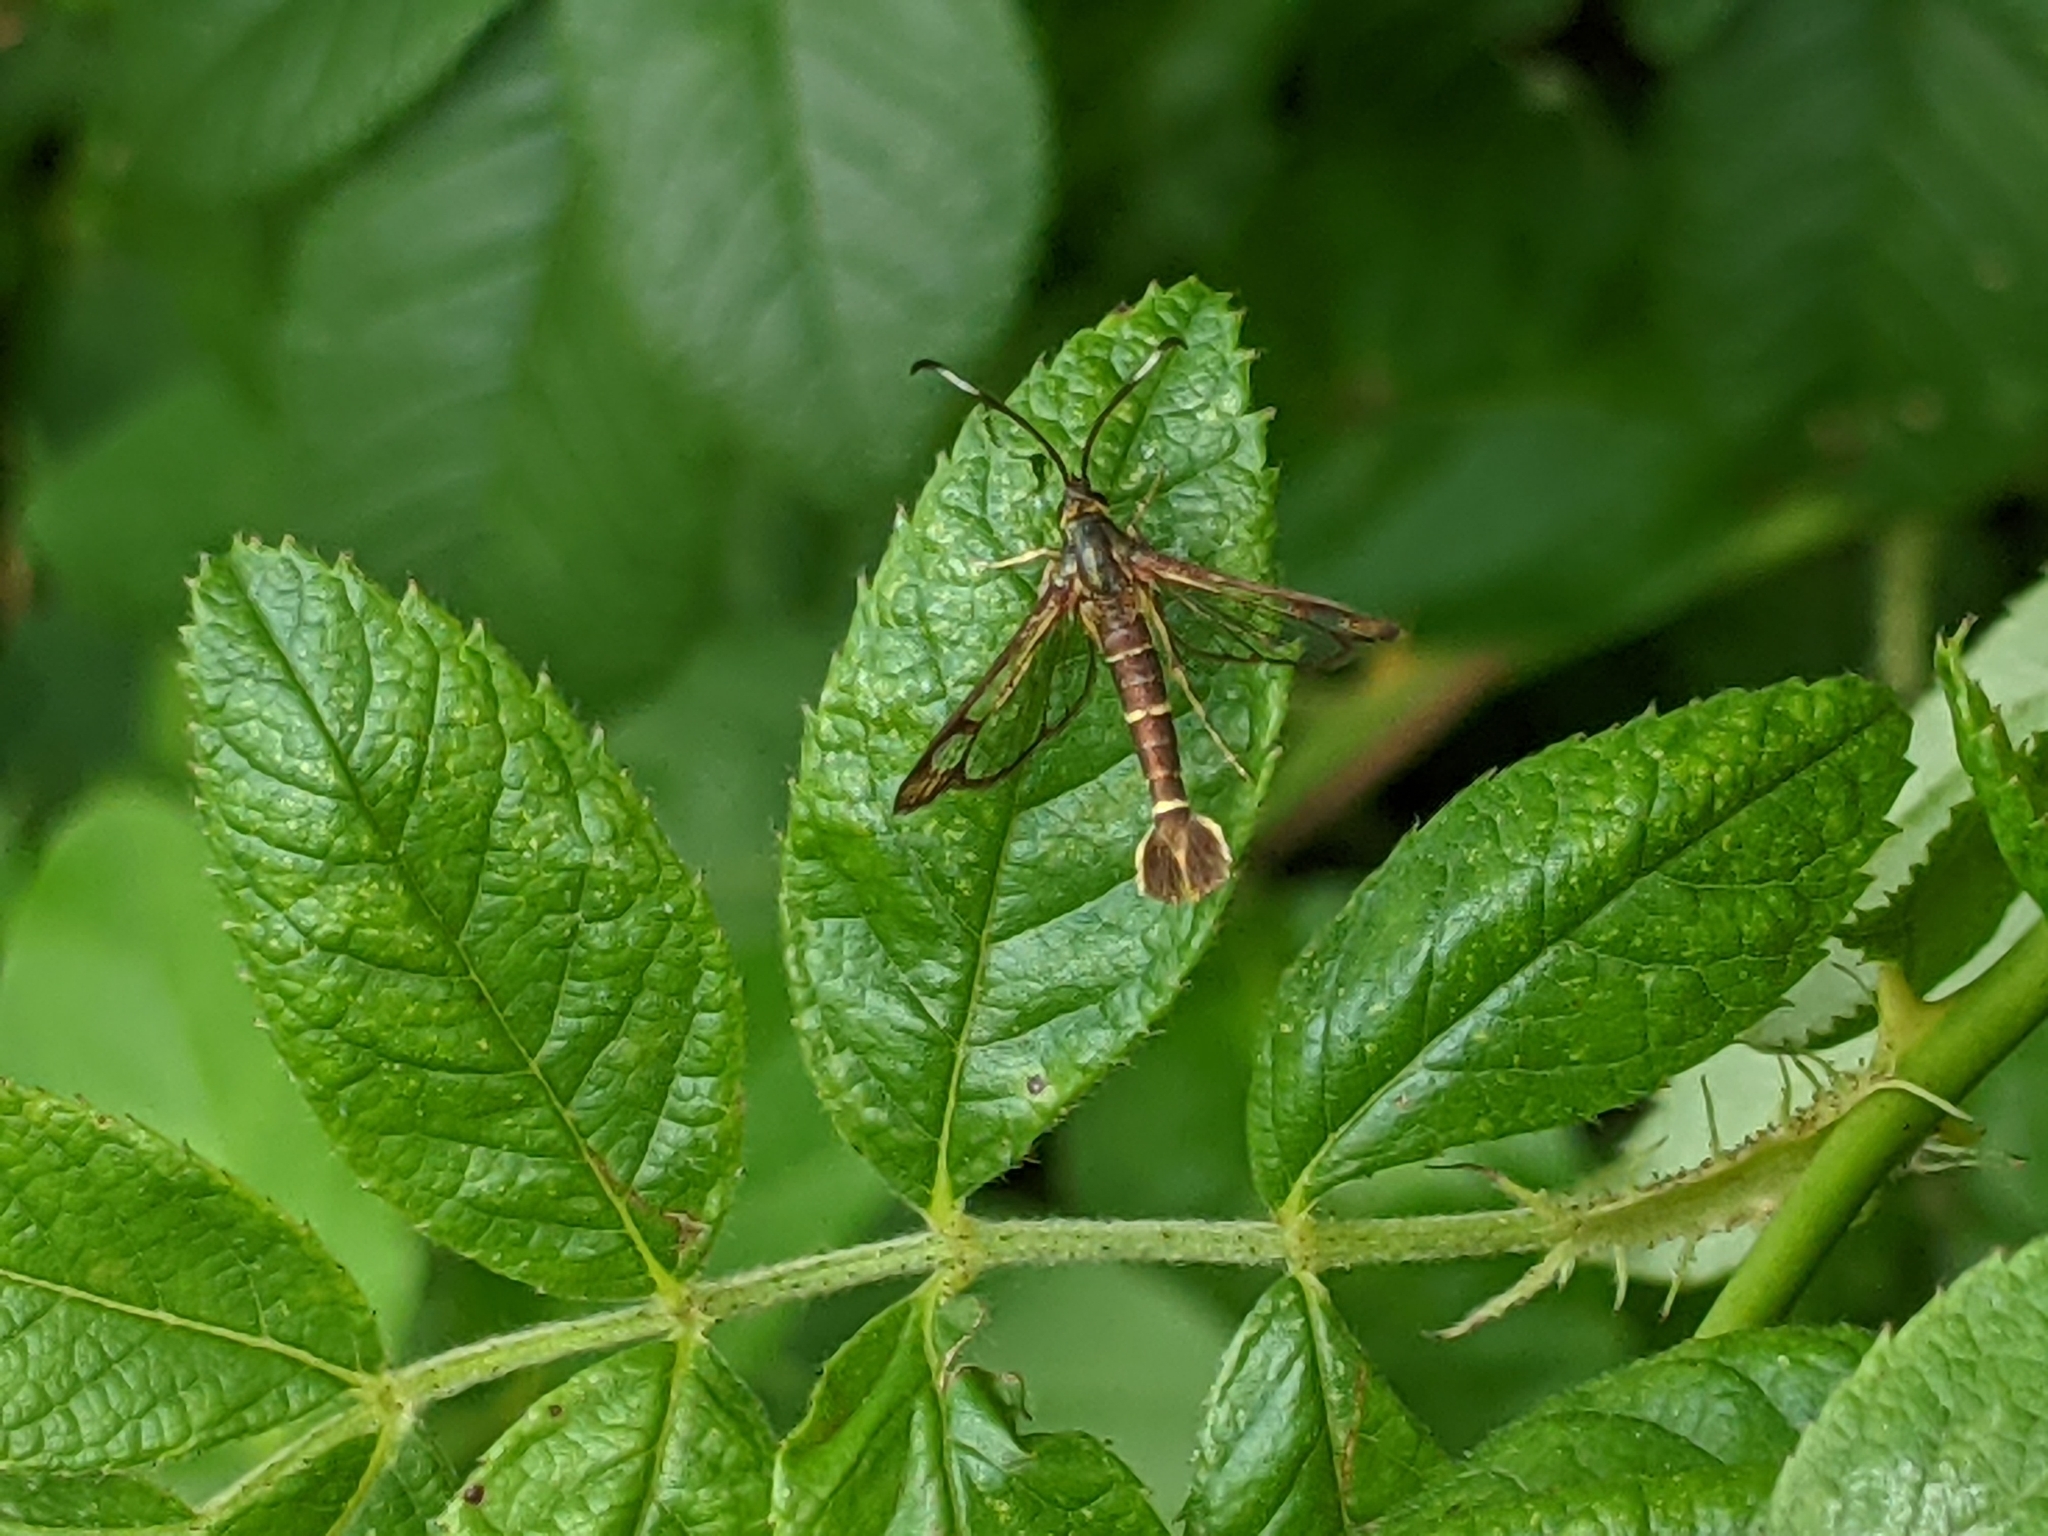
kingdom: Animalia
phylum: Arthropoda
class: Insecta
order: Lepidoptera
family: Sesiidae
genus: Carmenta
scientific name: Carmenta bassiformis
